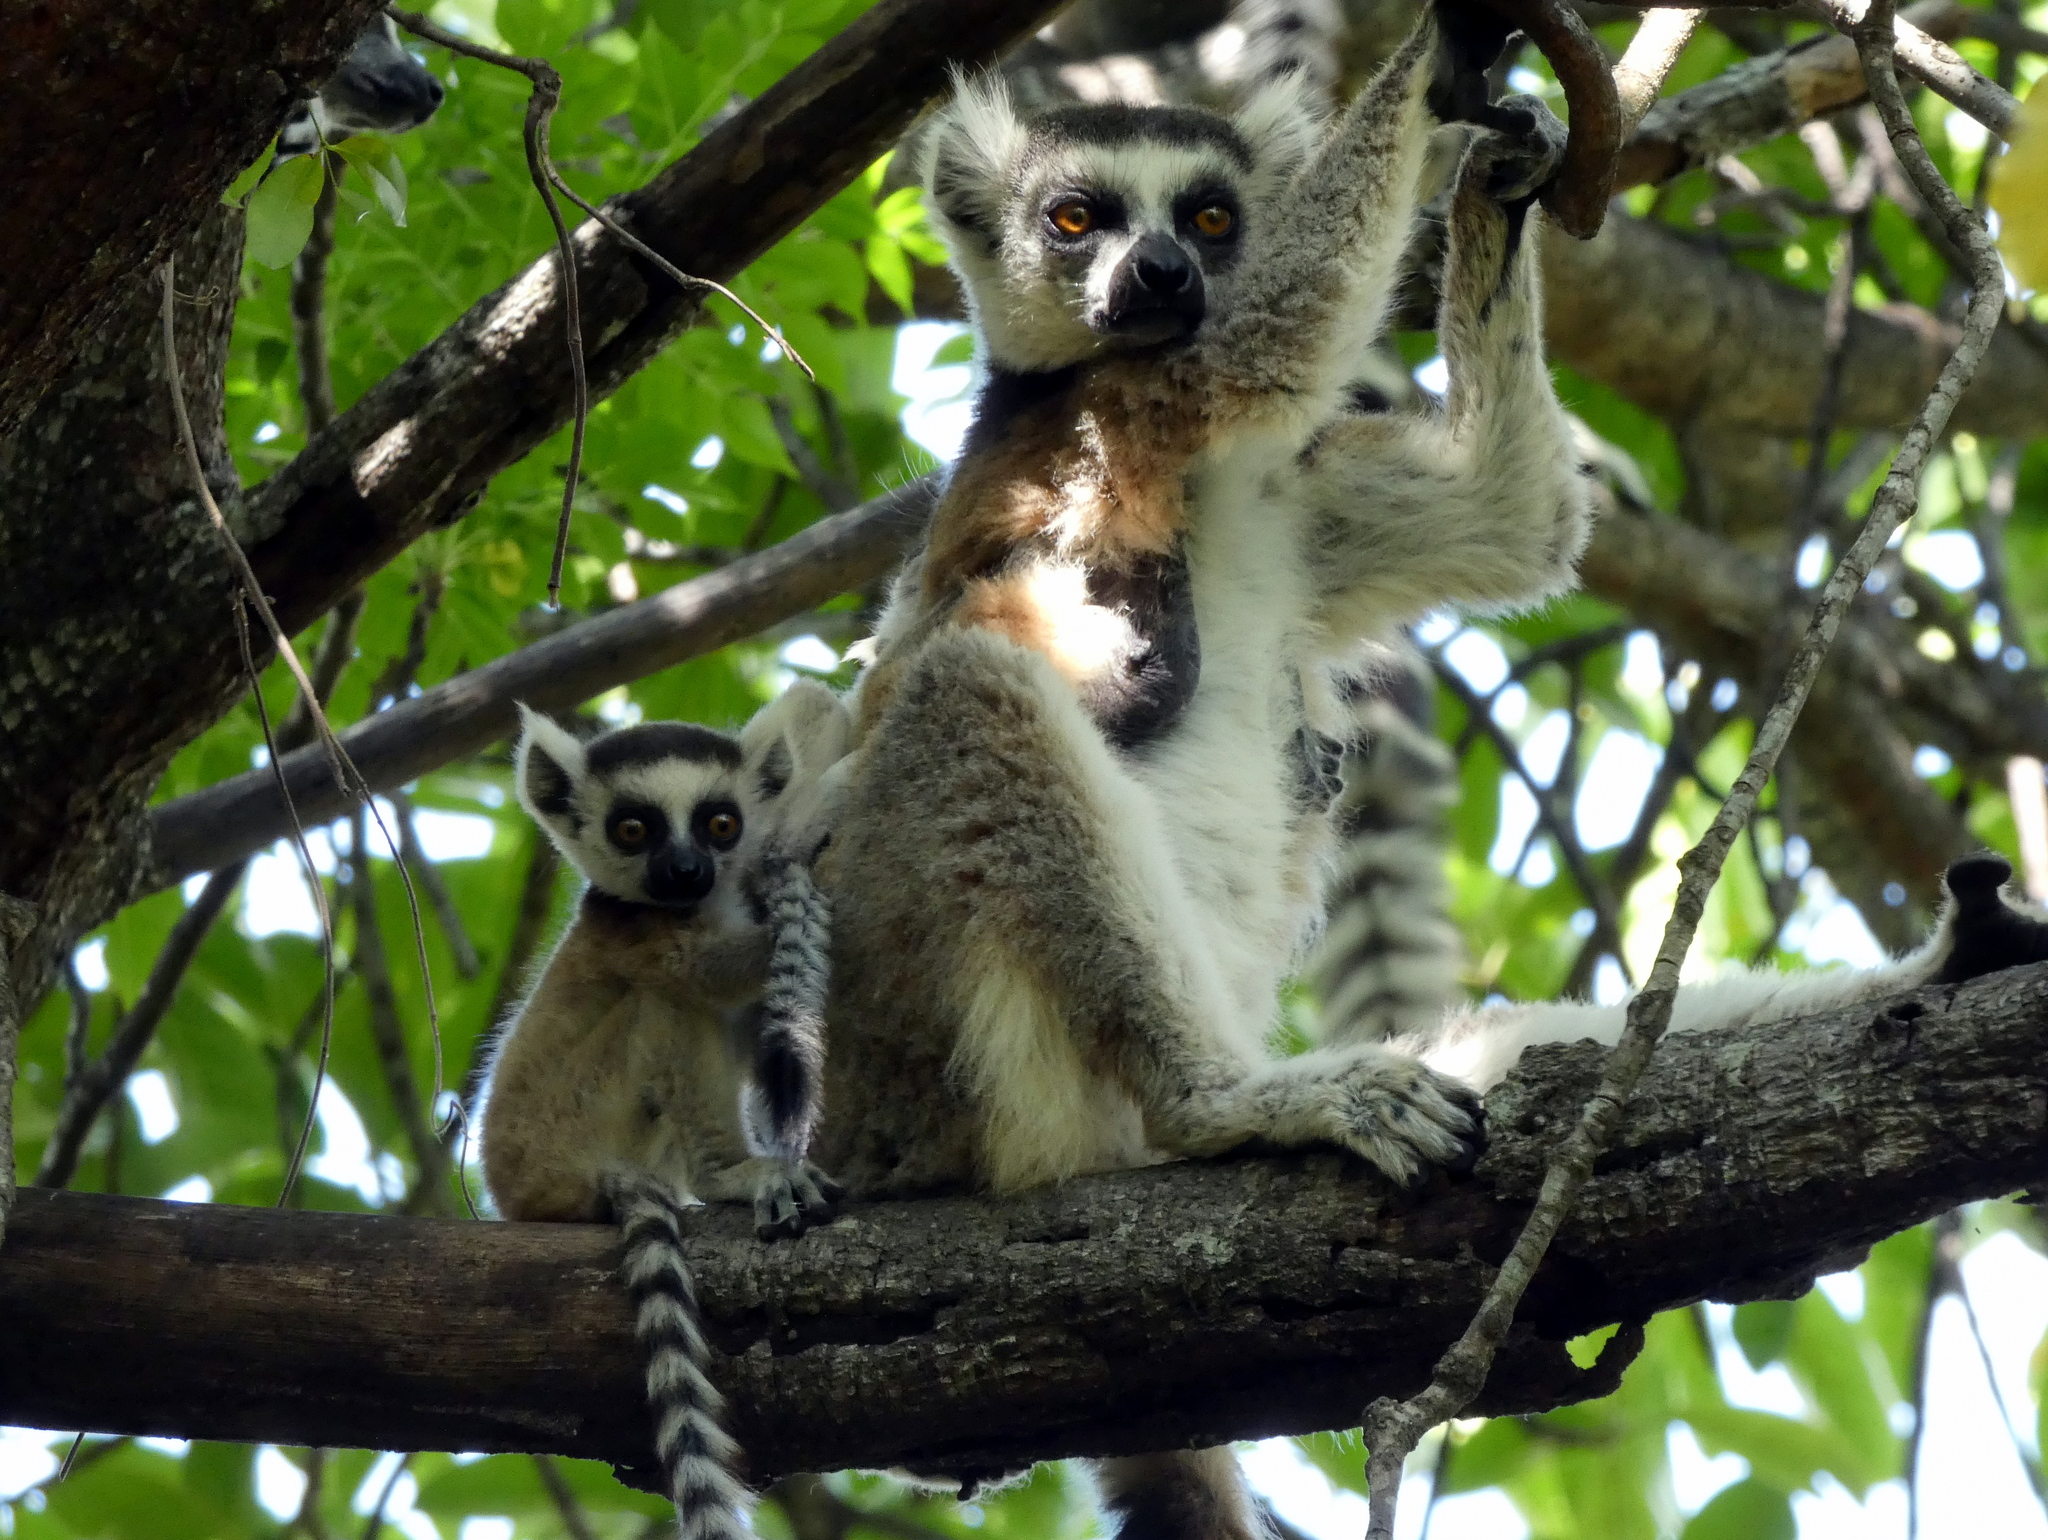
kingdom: Animalia
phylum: Chordata
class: Mammalia
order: Primates
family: Lemuridae
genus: Lemur
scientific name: Lemur catta
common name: Ring-tailed lemur
